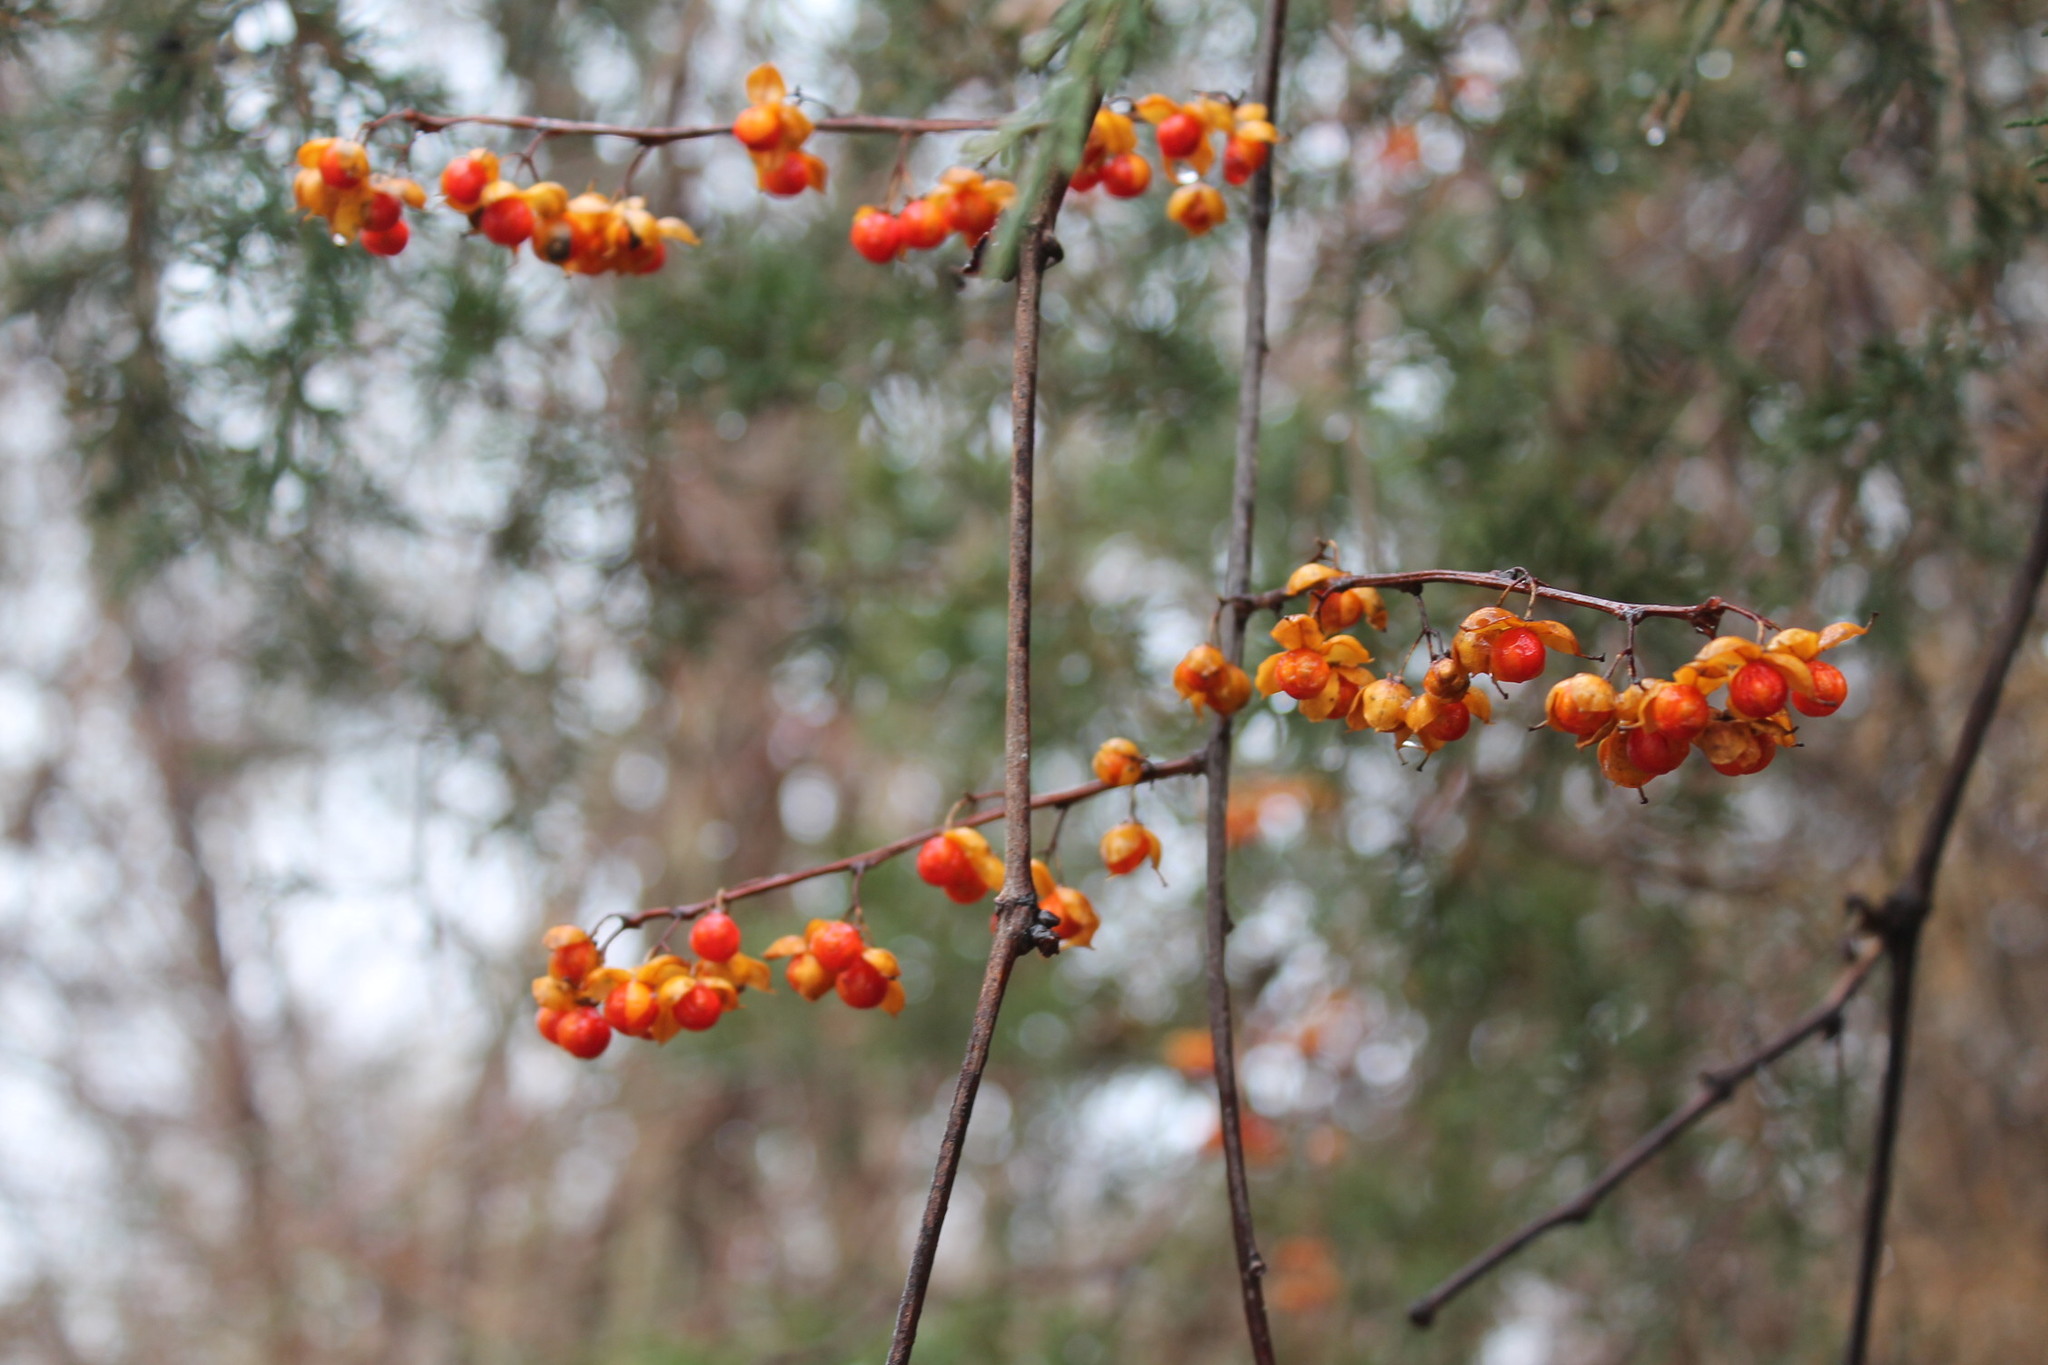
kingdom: Plantae
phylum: Tracheophyta
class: Magnoliopsida
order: Celastrales
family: Celastraceae
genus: Celastrus
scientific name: Celastrus orbiculatus
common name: Oriental bittersweet
